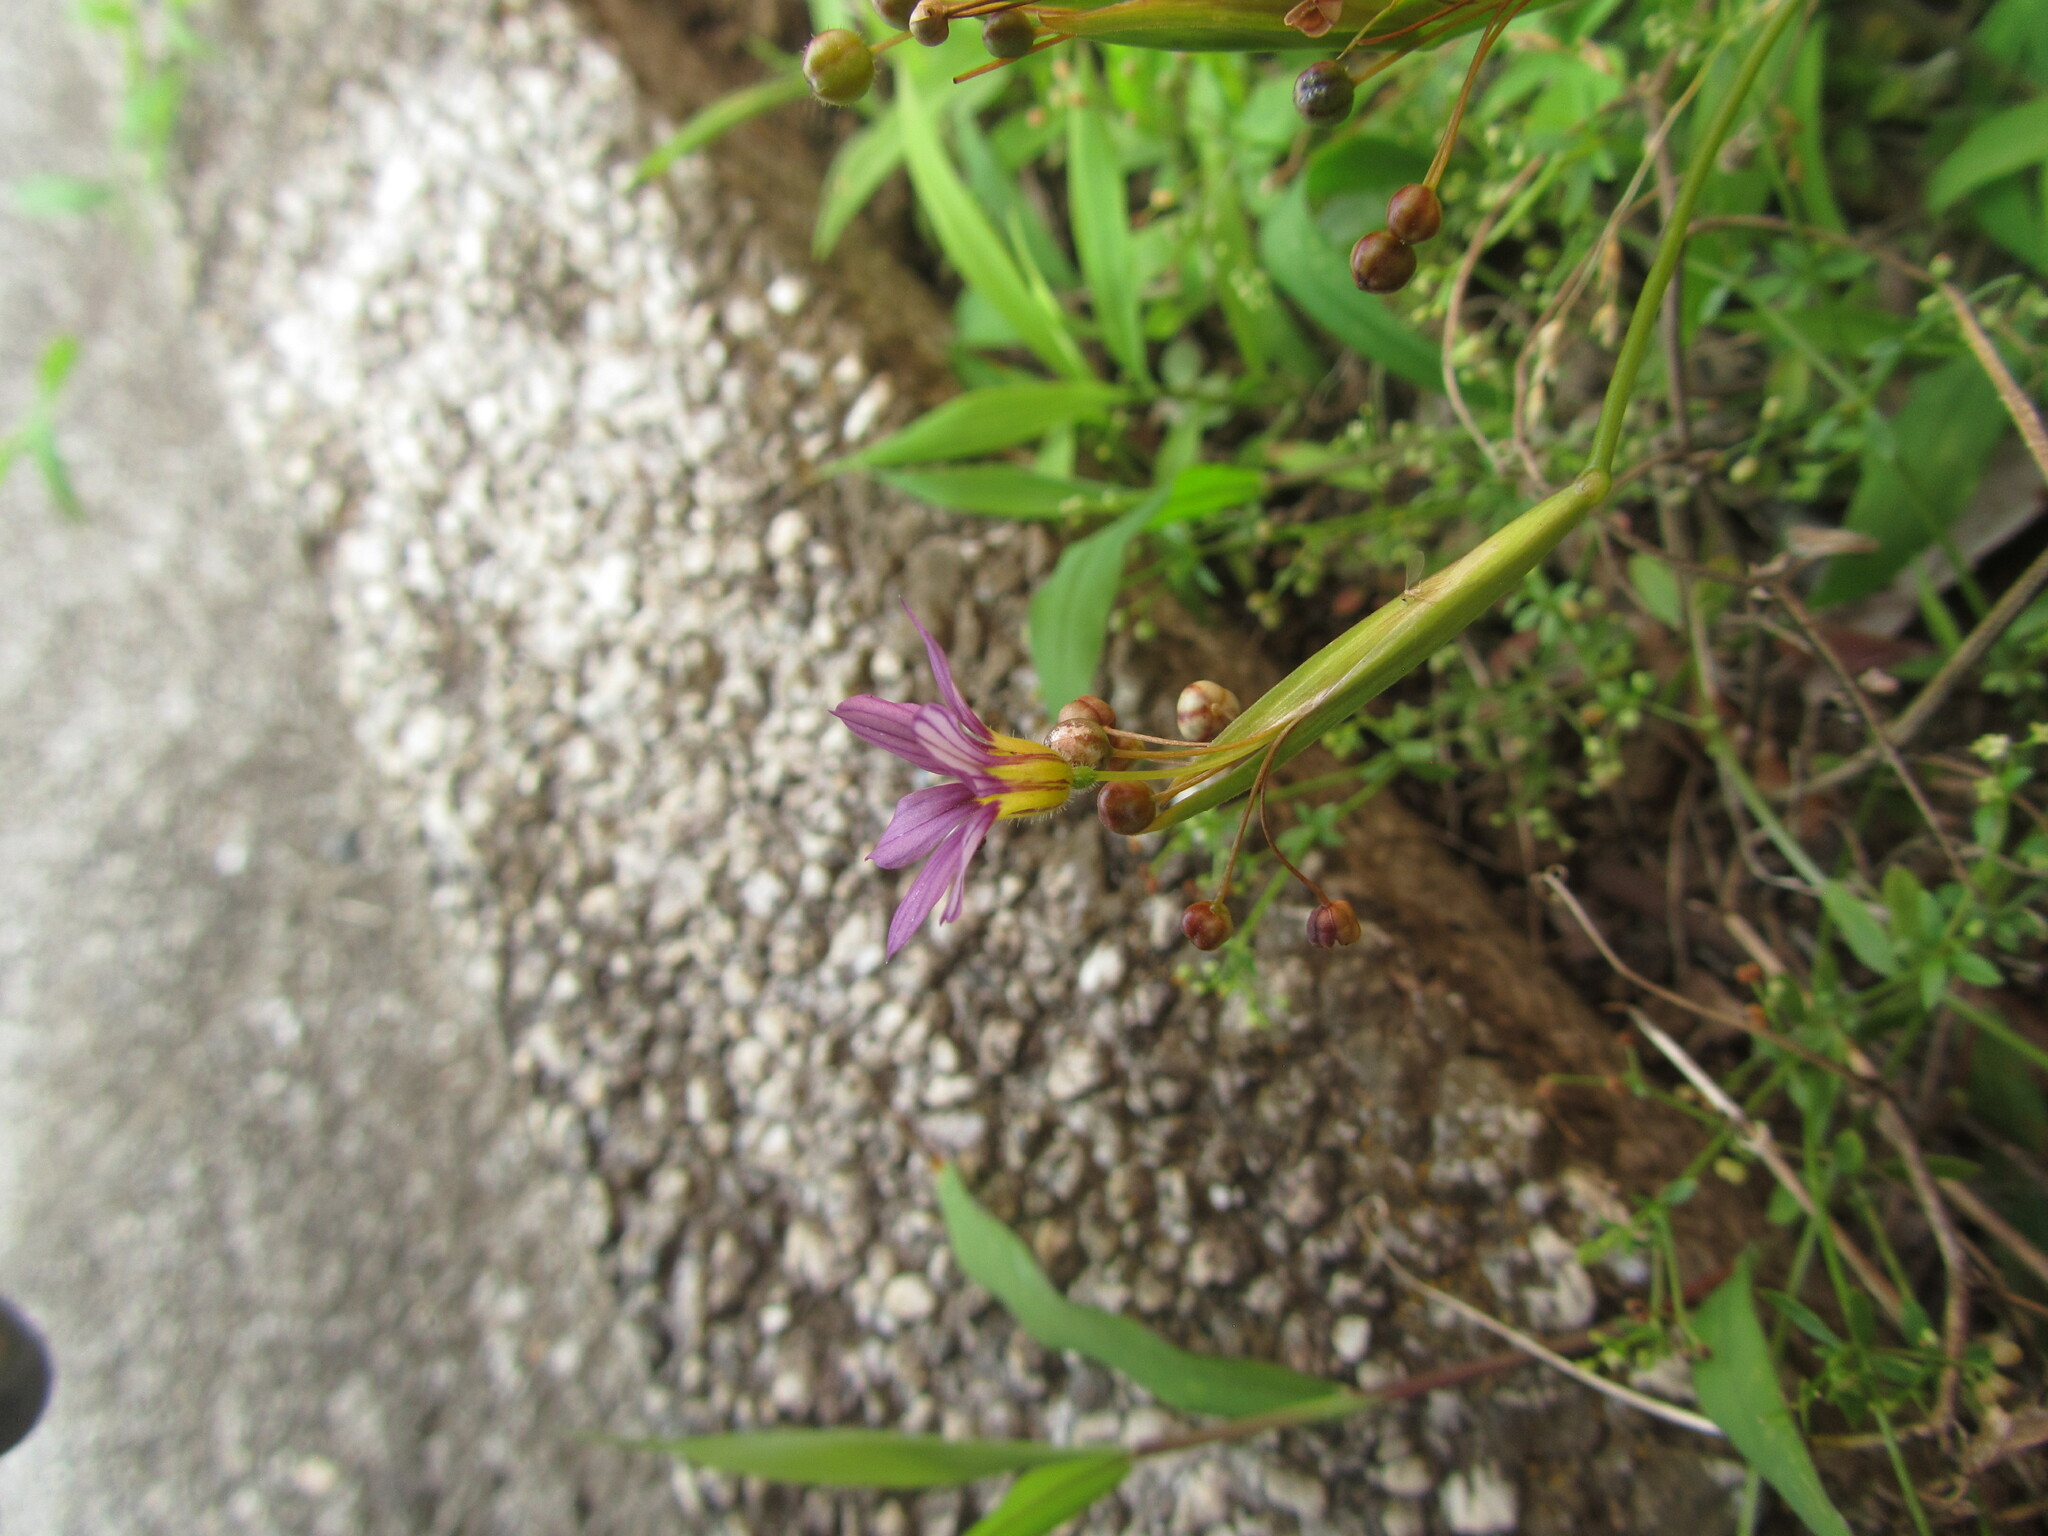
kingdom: Plantae
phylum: Tracheophyta
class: Liliopsida
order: Asparagales
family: Iridaceae
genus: Sisyrinchium
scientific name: Sisyrinchium micranthum
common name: Bermuda pigroot
